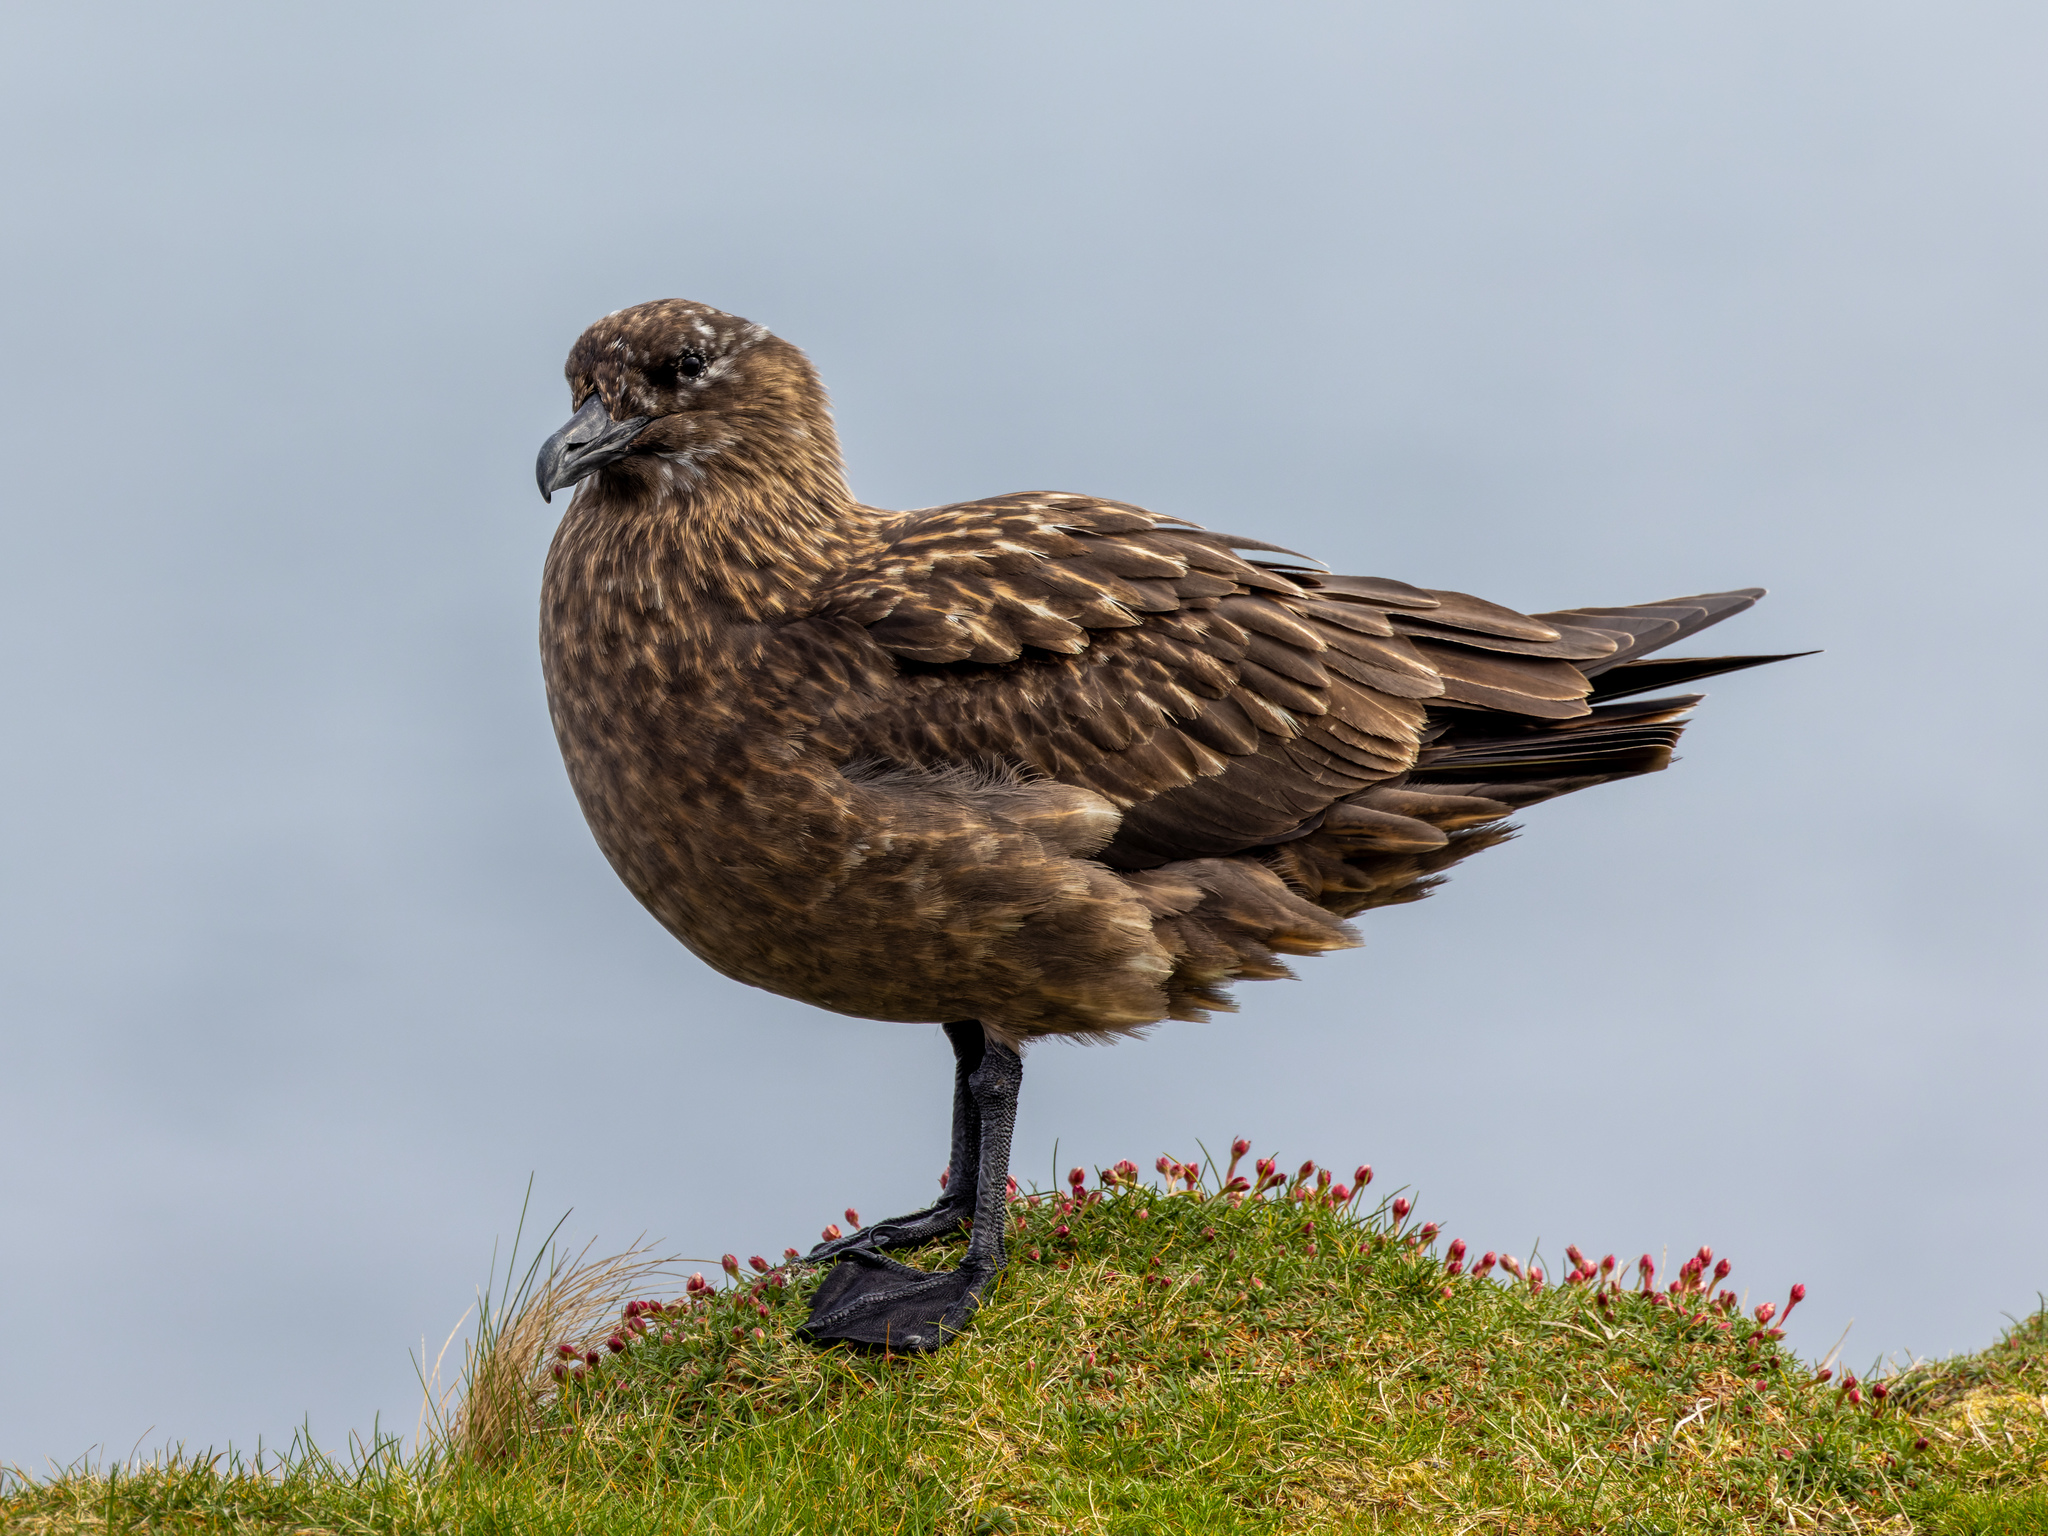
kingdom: Animalia
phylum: Chordata
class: Aves
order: Charadriiformes
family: Stercorariidae
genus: Stercorarius
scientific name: Stercorarius skua
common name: Great skua
